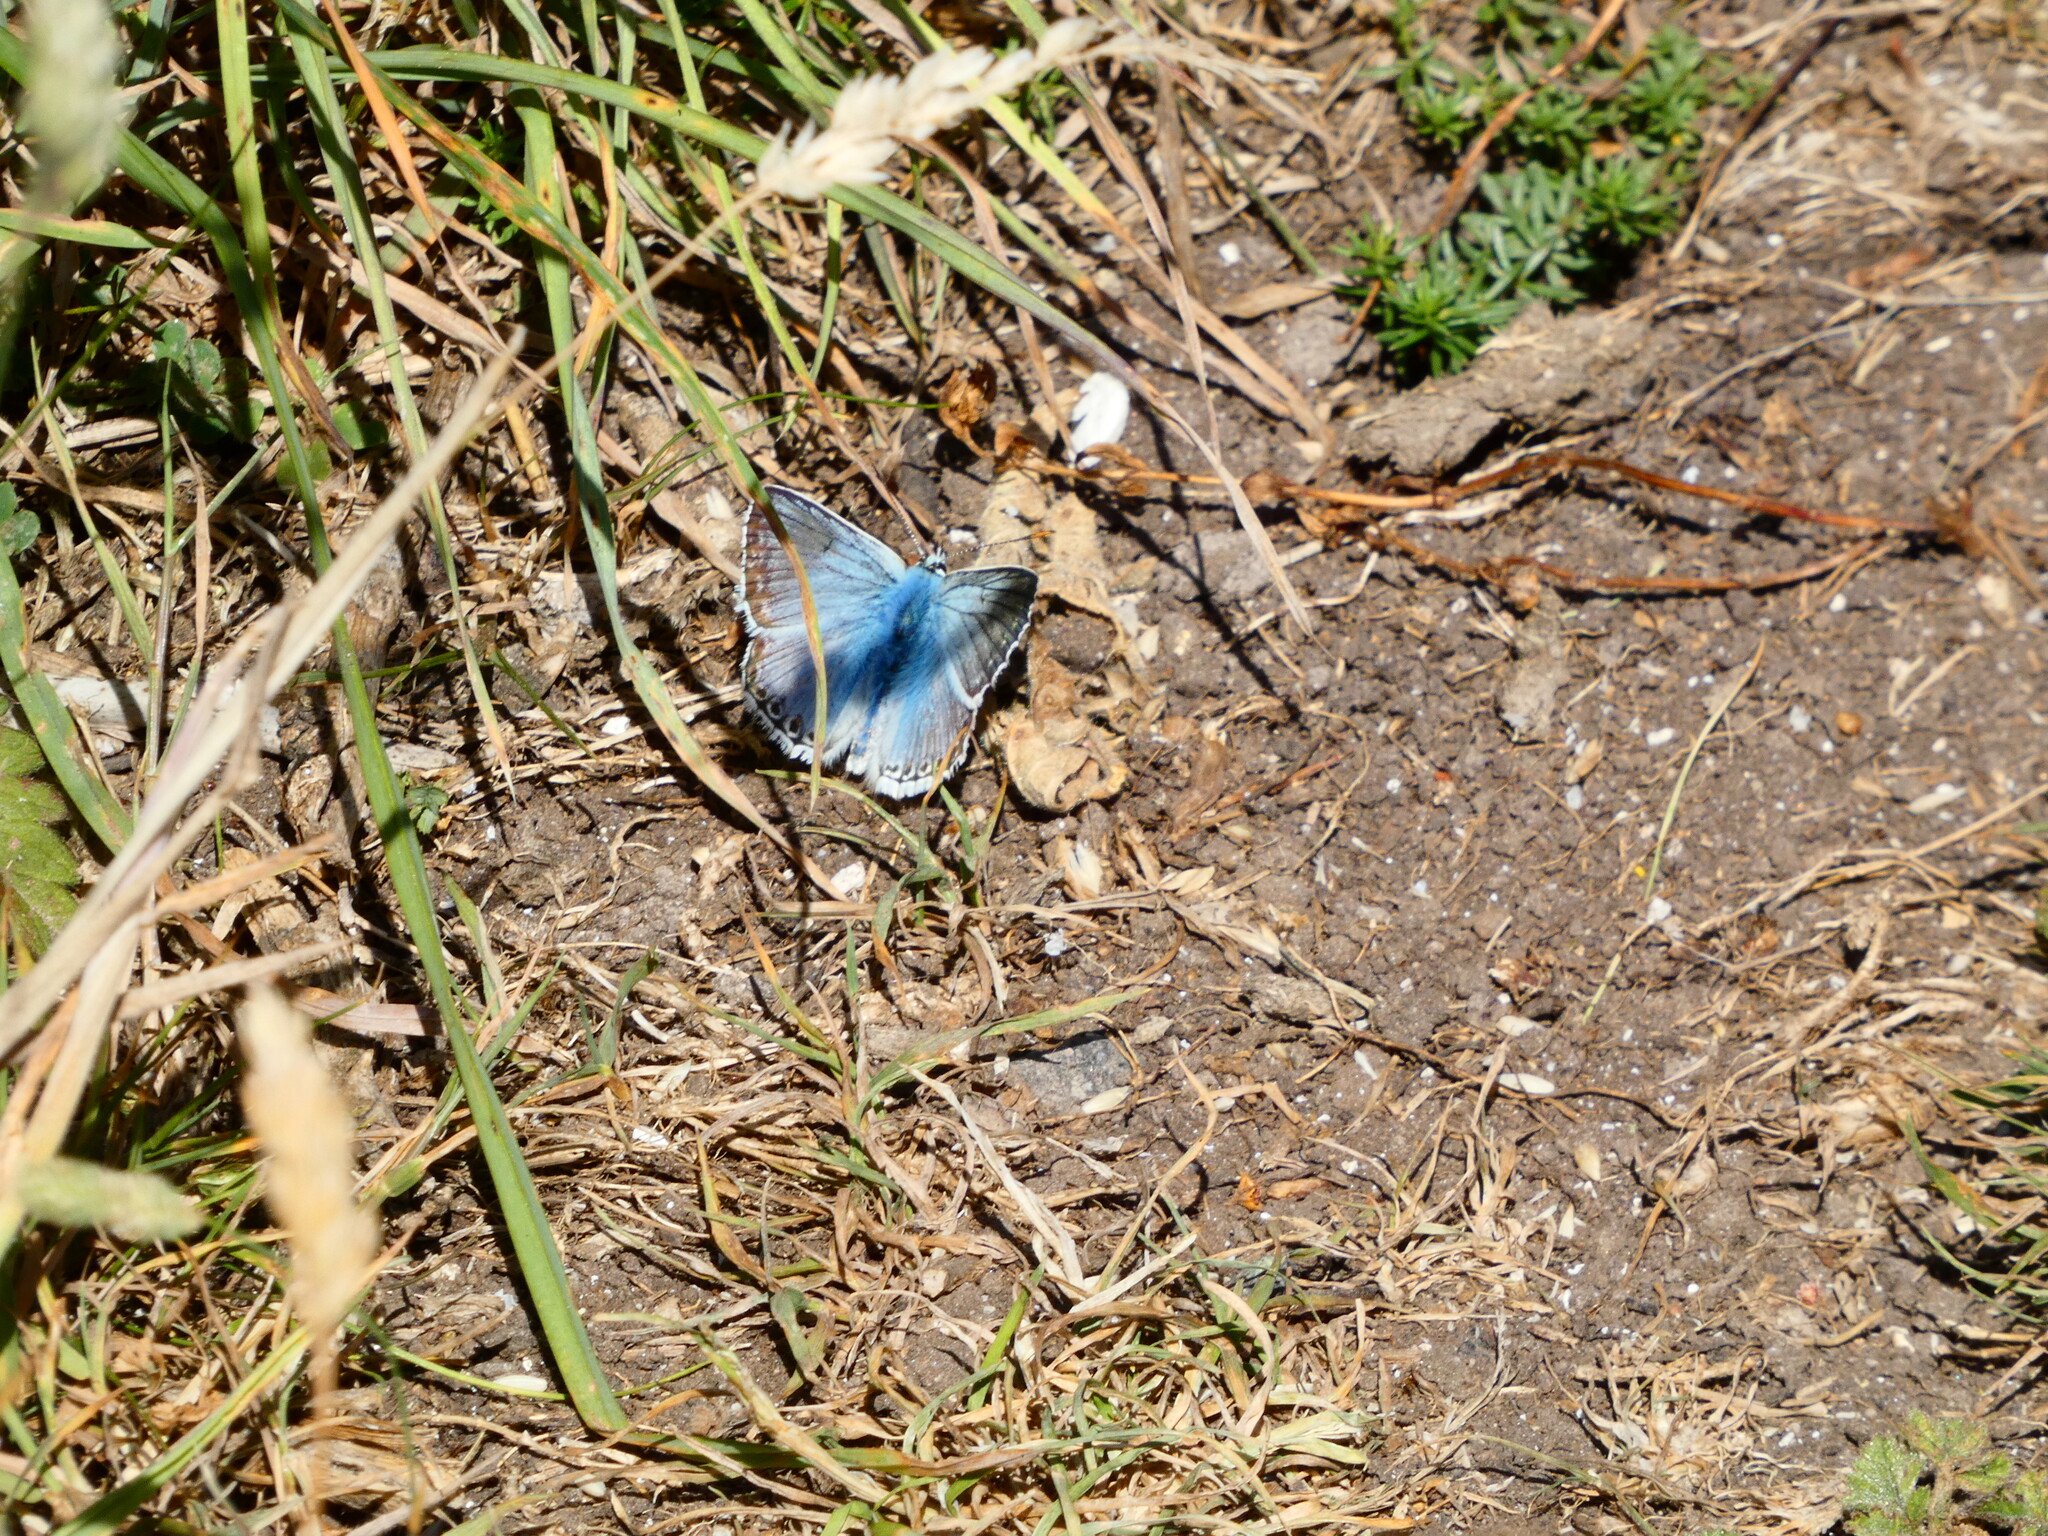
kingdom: Animalia
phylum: Arthropoda
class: Insecta
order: Lepidoptera
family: Lycaenidae
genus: Lysandra
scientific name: Lysandra coridon
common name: Chalkhill blue
